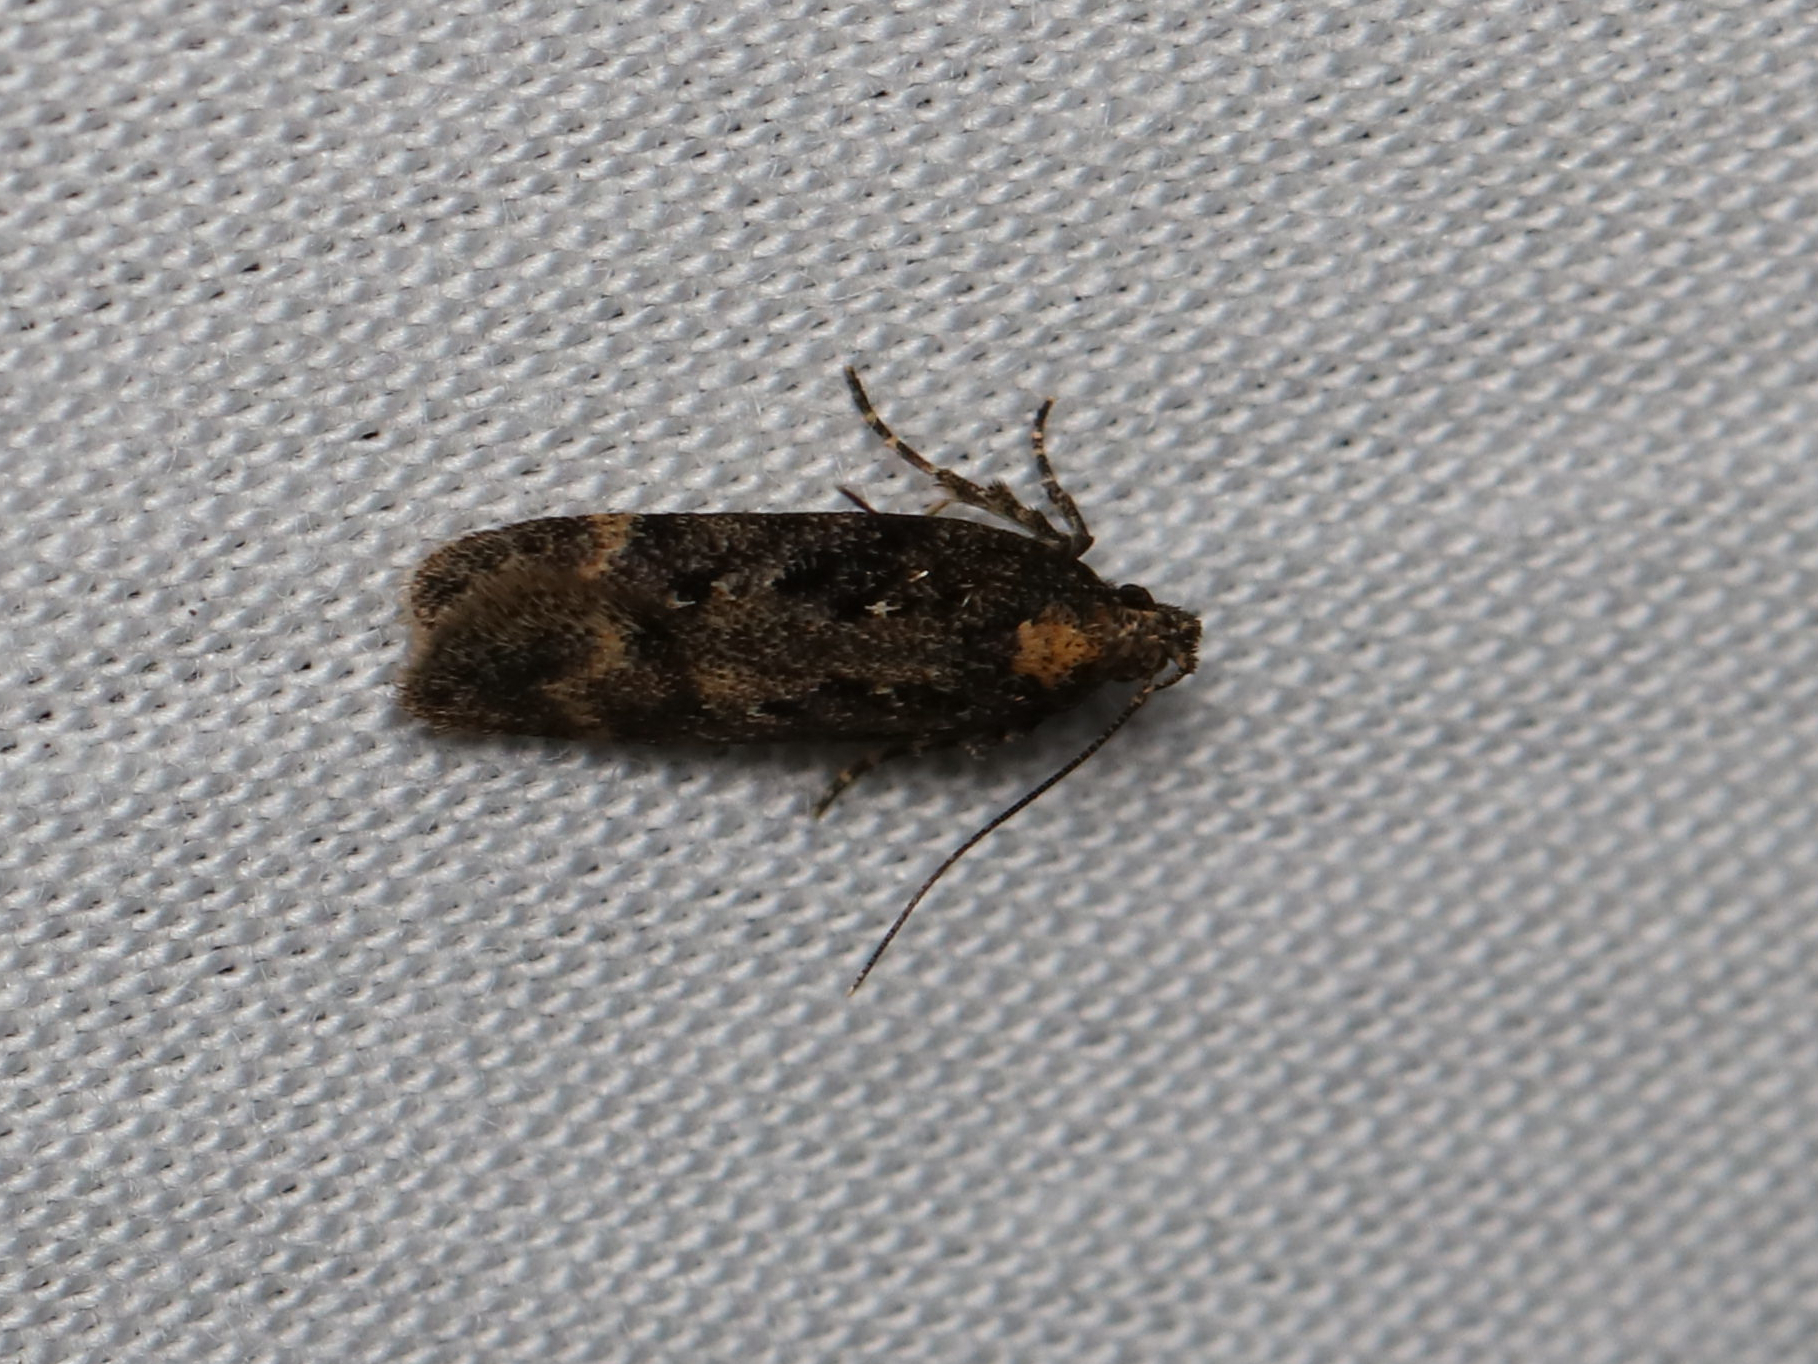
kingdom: Animalia
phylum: Arthropoda
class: Insecta
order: Lepidoptera
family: Gelechiidae
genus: Chionodes
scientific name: Chionodes sevir
